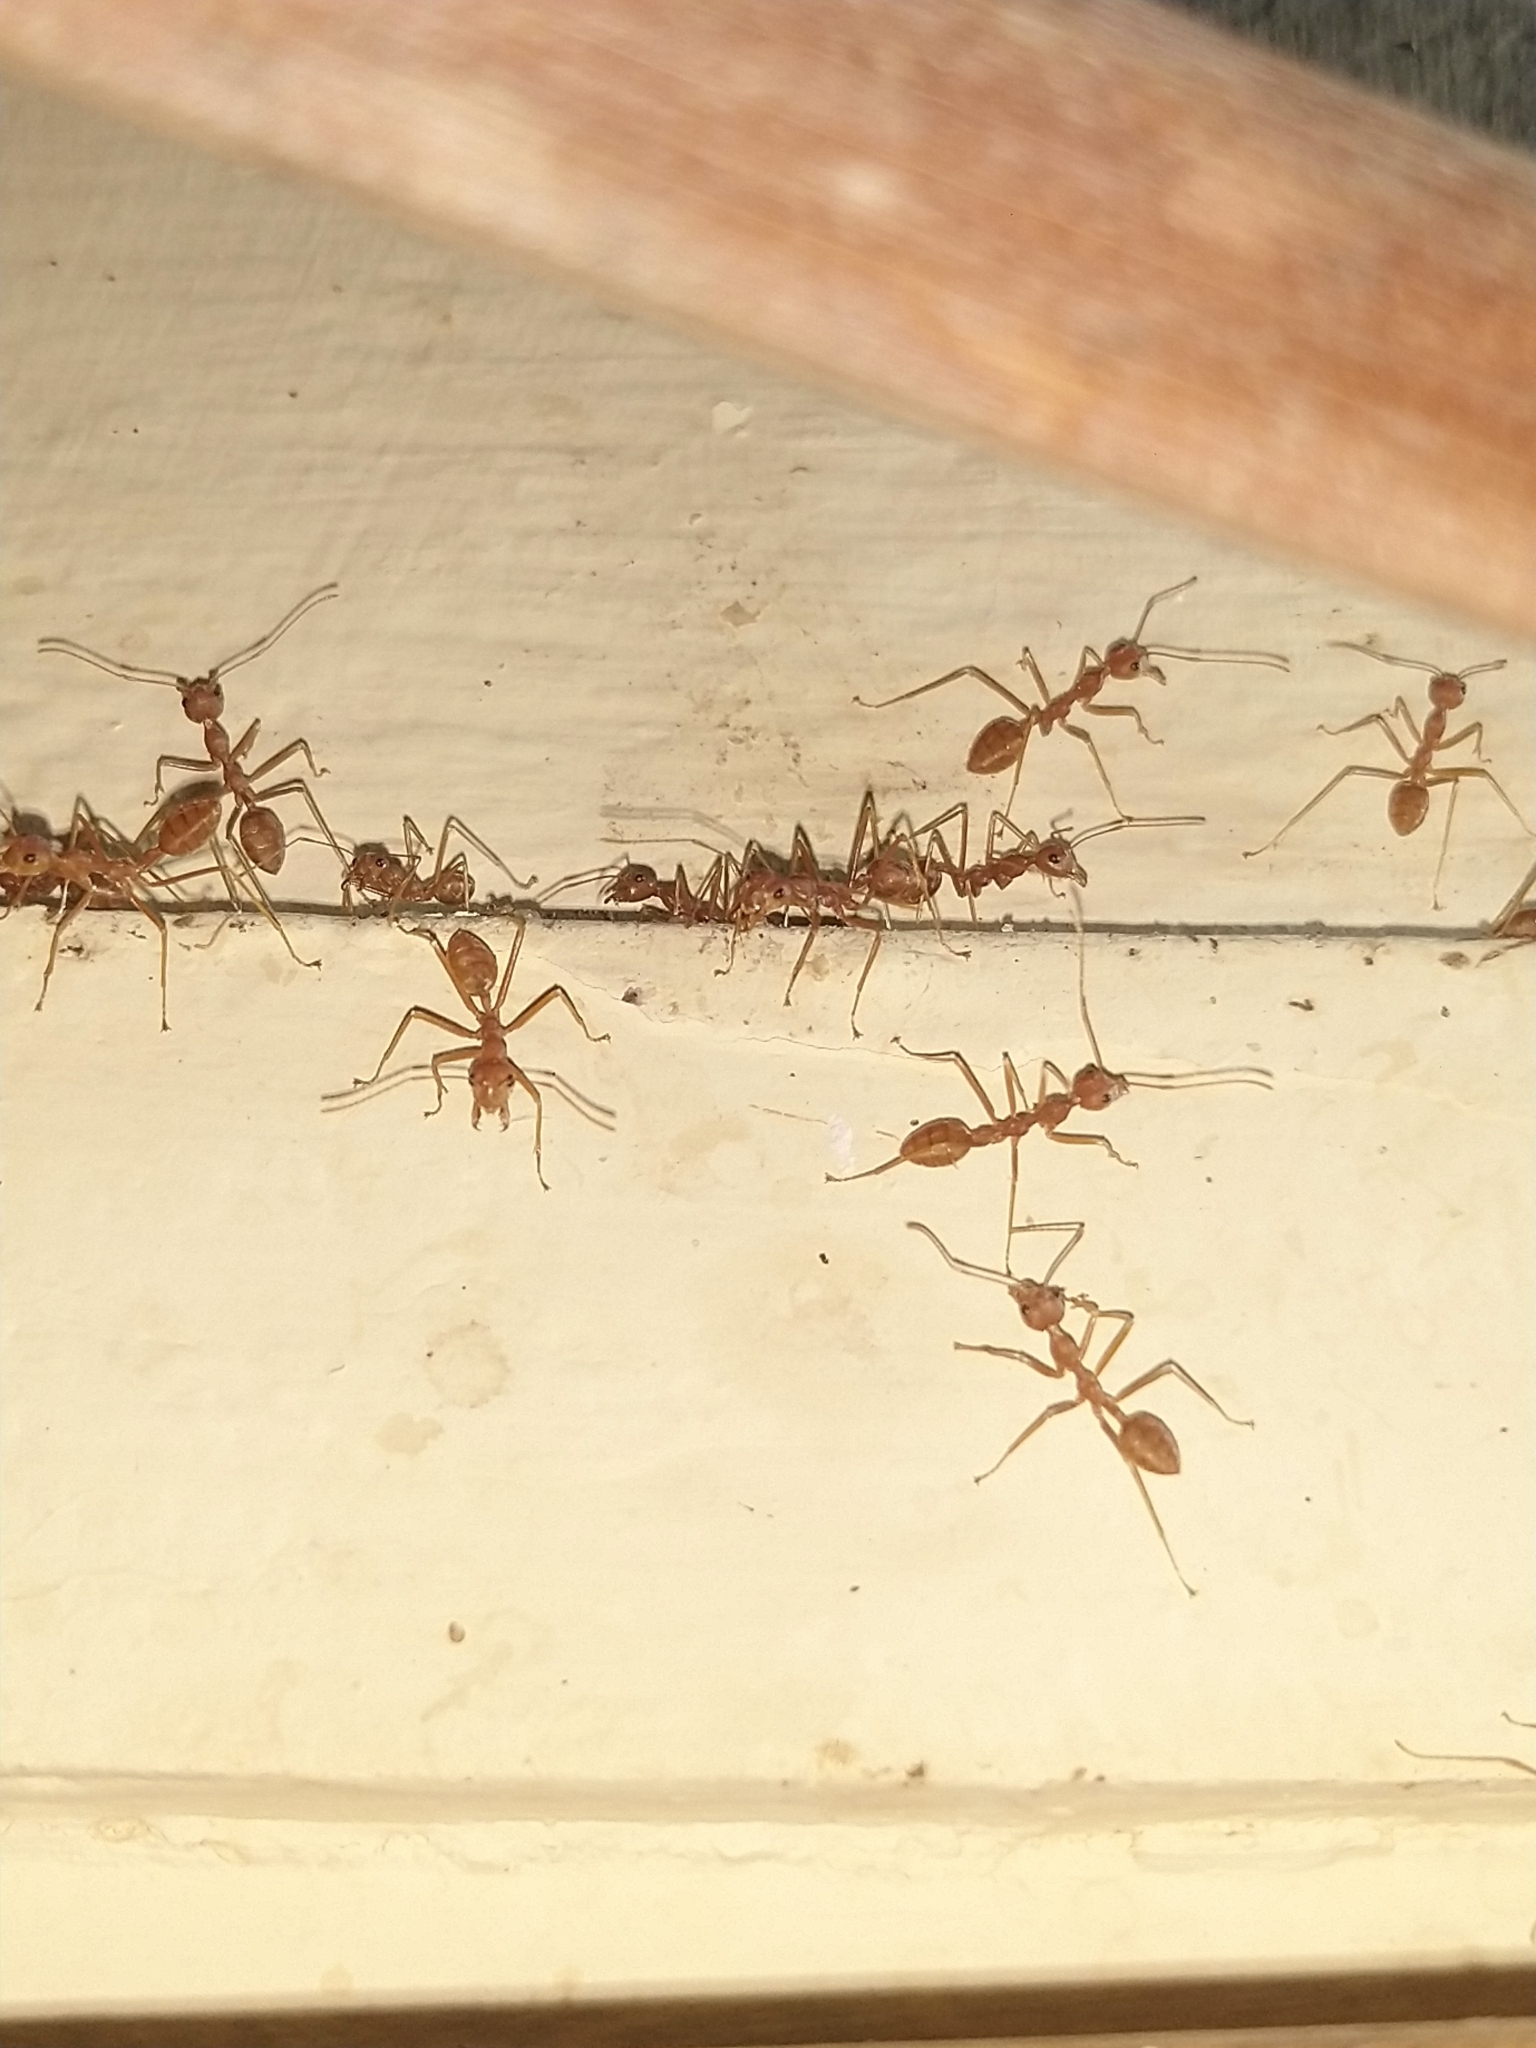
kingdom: Animalia
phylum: Arthropoda
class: Insecta
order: Hymenoptera
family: Formicidae
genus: Oecophylla
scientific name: Oecophylla smaragdina
